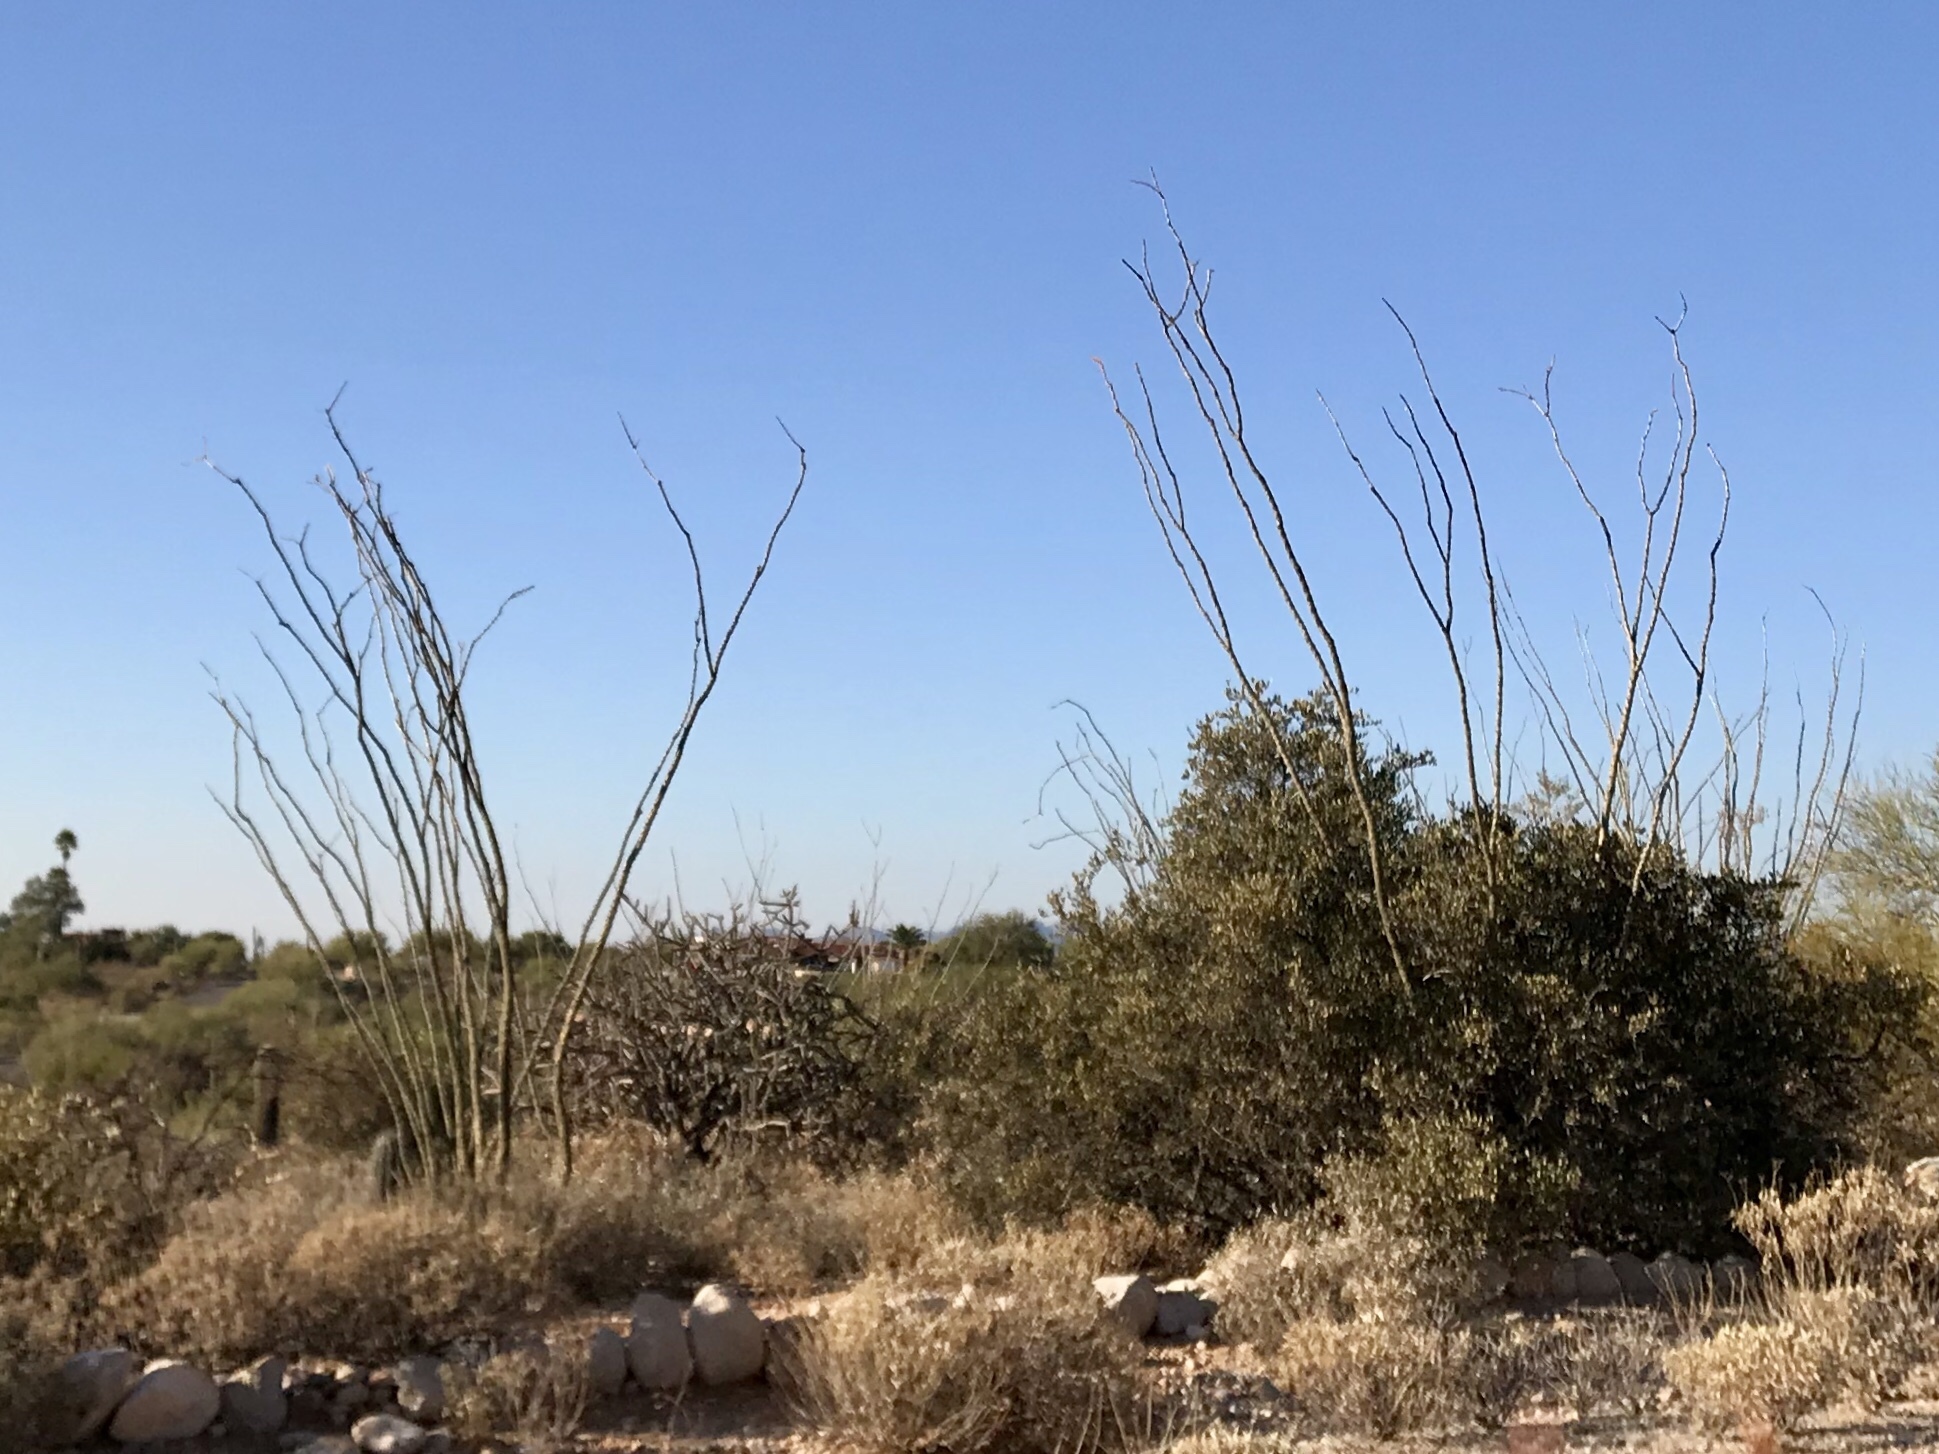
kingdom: Plantae
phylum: Tracheophyta
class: Magnoliopsida
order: Ericales
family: Fouquieriaceae
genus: Fouquieria
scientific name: Fouquieria splendens
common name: Vine-cactus
